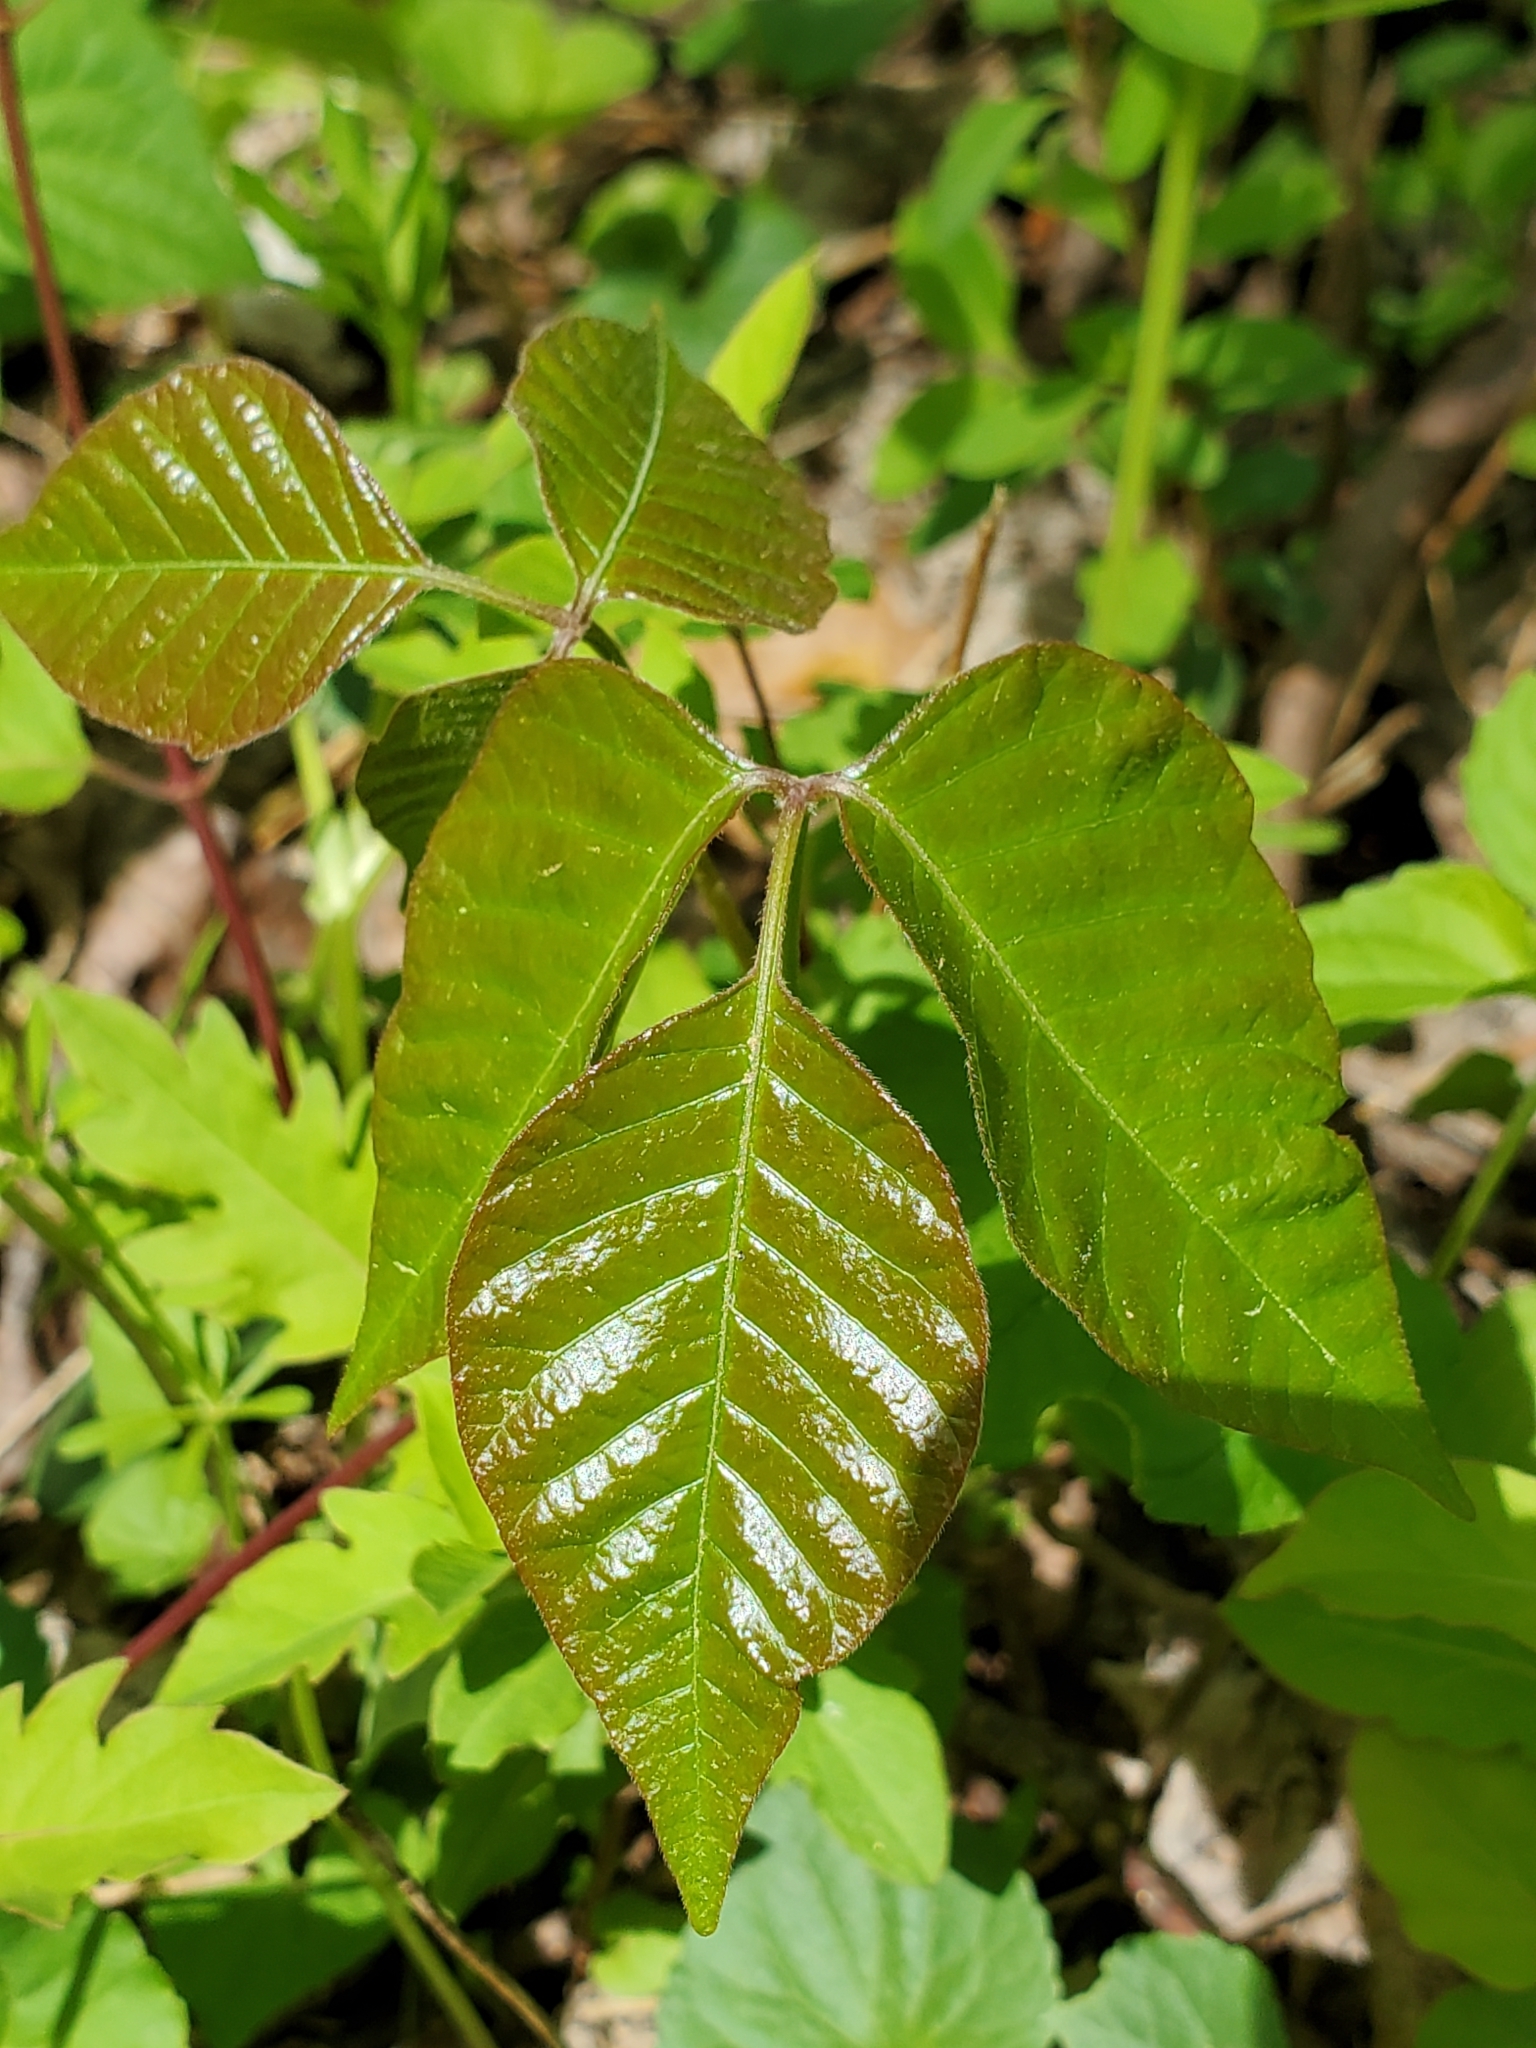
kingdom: Plantae
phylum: Tracheophyta
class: Magnoliopsida
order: Sapindales
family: Anacardiaceae
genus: Toxicodendron
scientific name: Toxicodendron radicans
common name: Poison ivy
